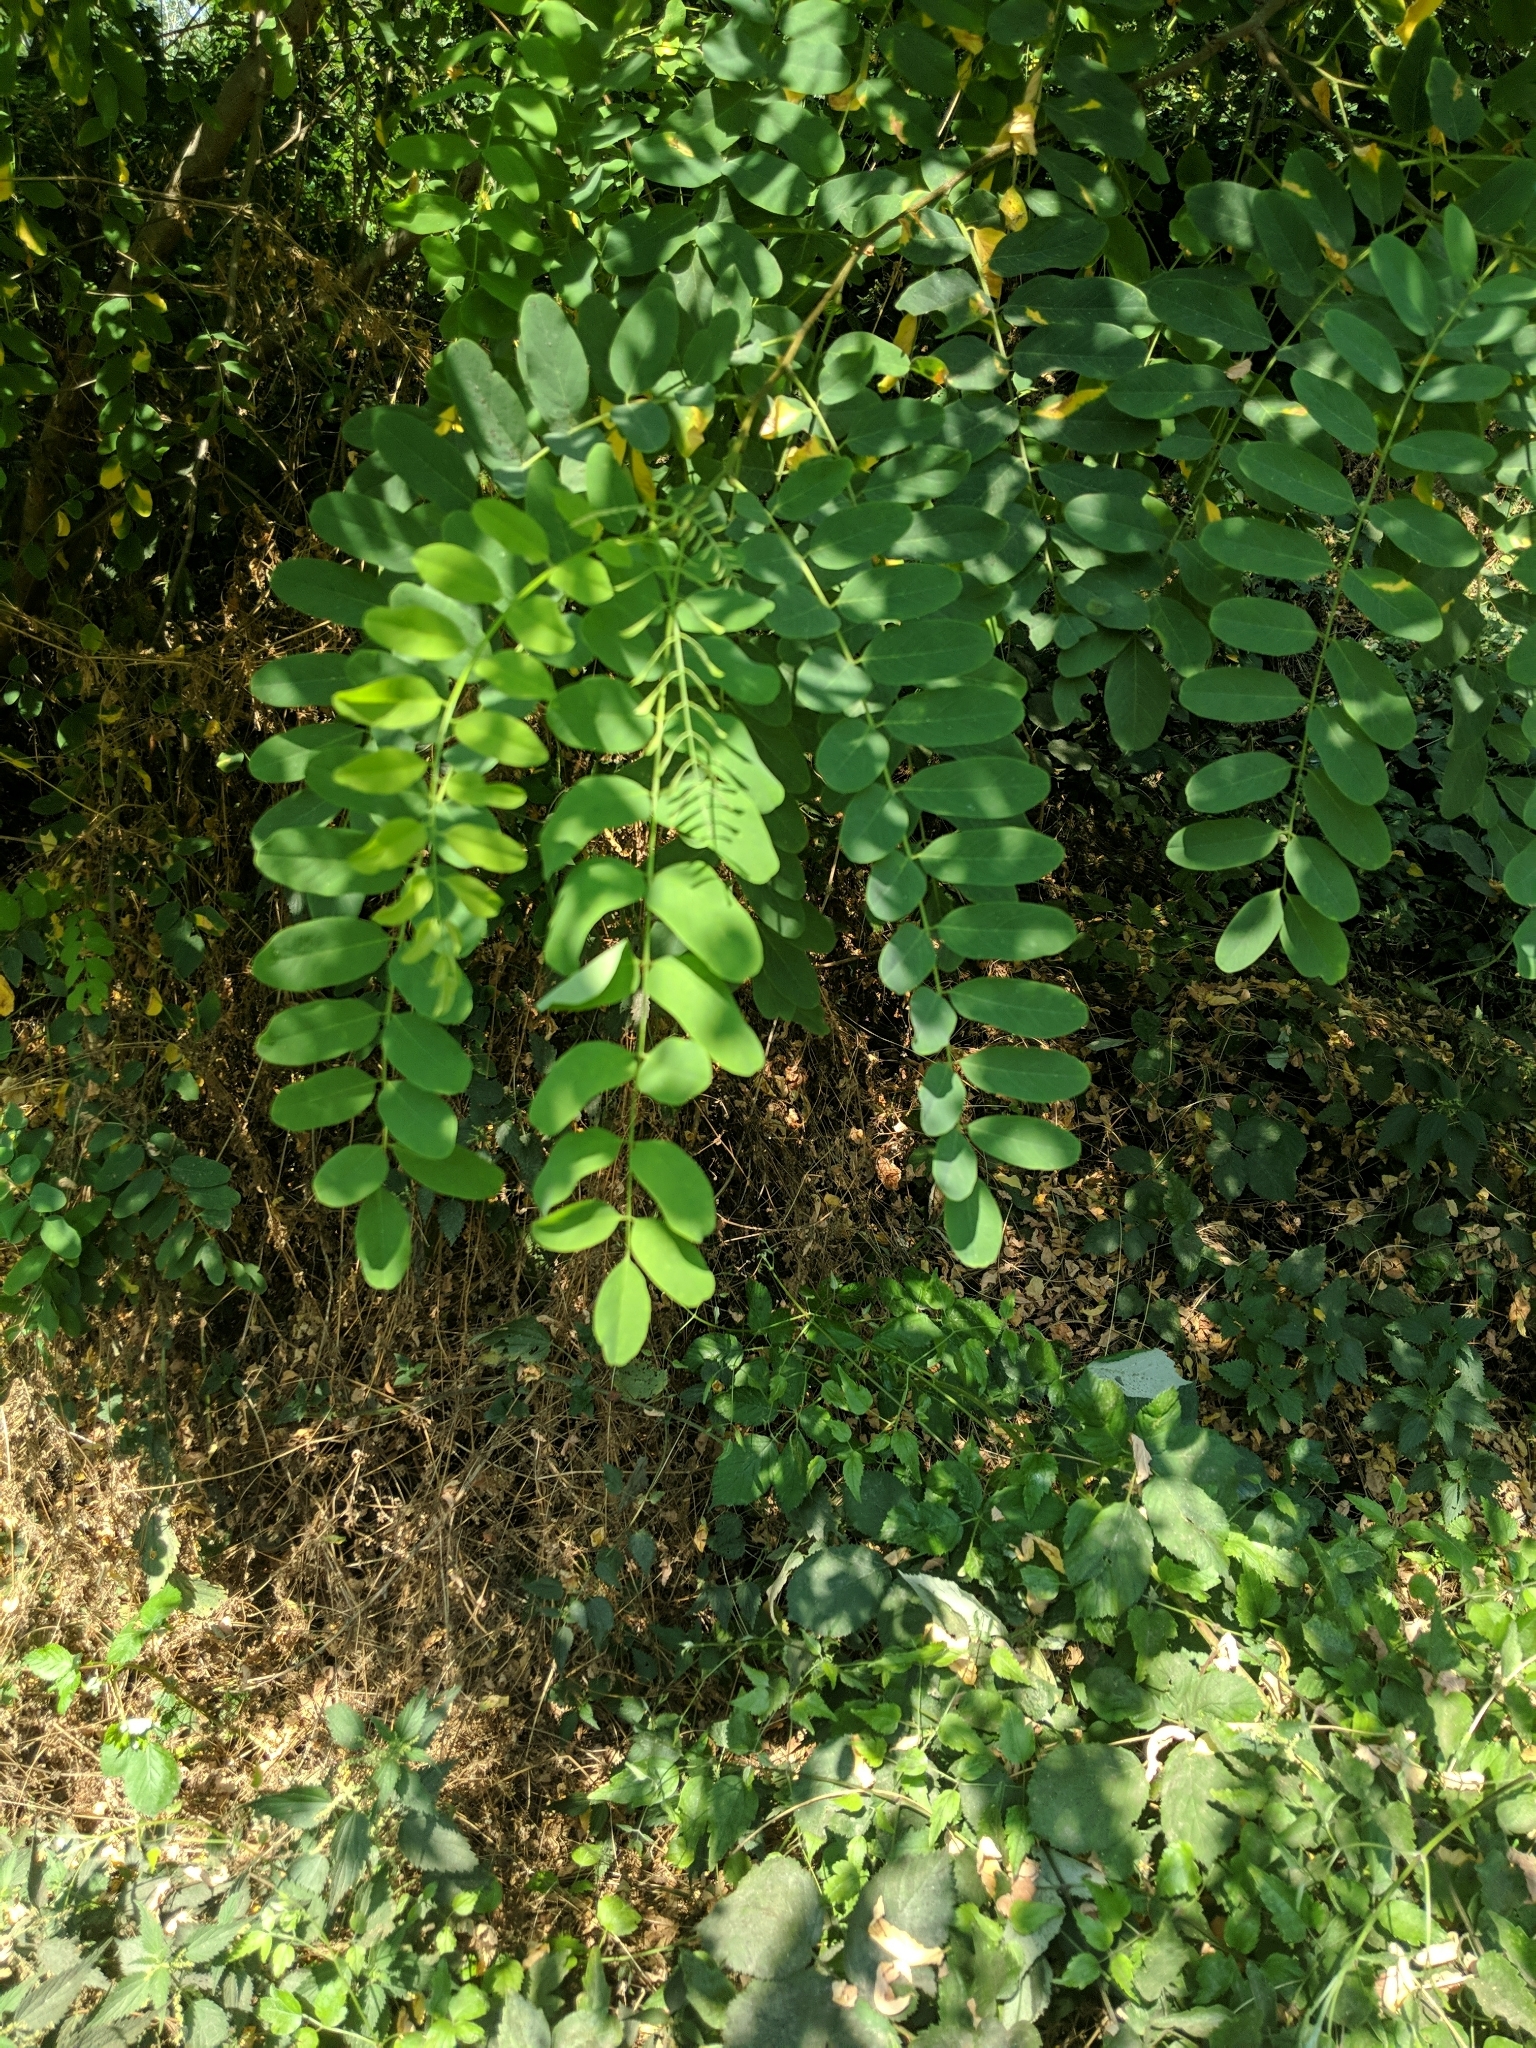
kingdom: Plantae
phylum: Tracheophyta
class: Magnoliopsida
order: Fabales
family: Fabaceae
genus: Robinia
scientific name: Robinia pseudoacacia
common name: Black locust
